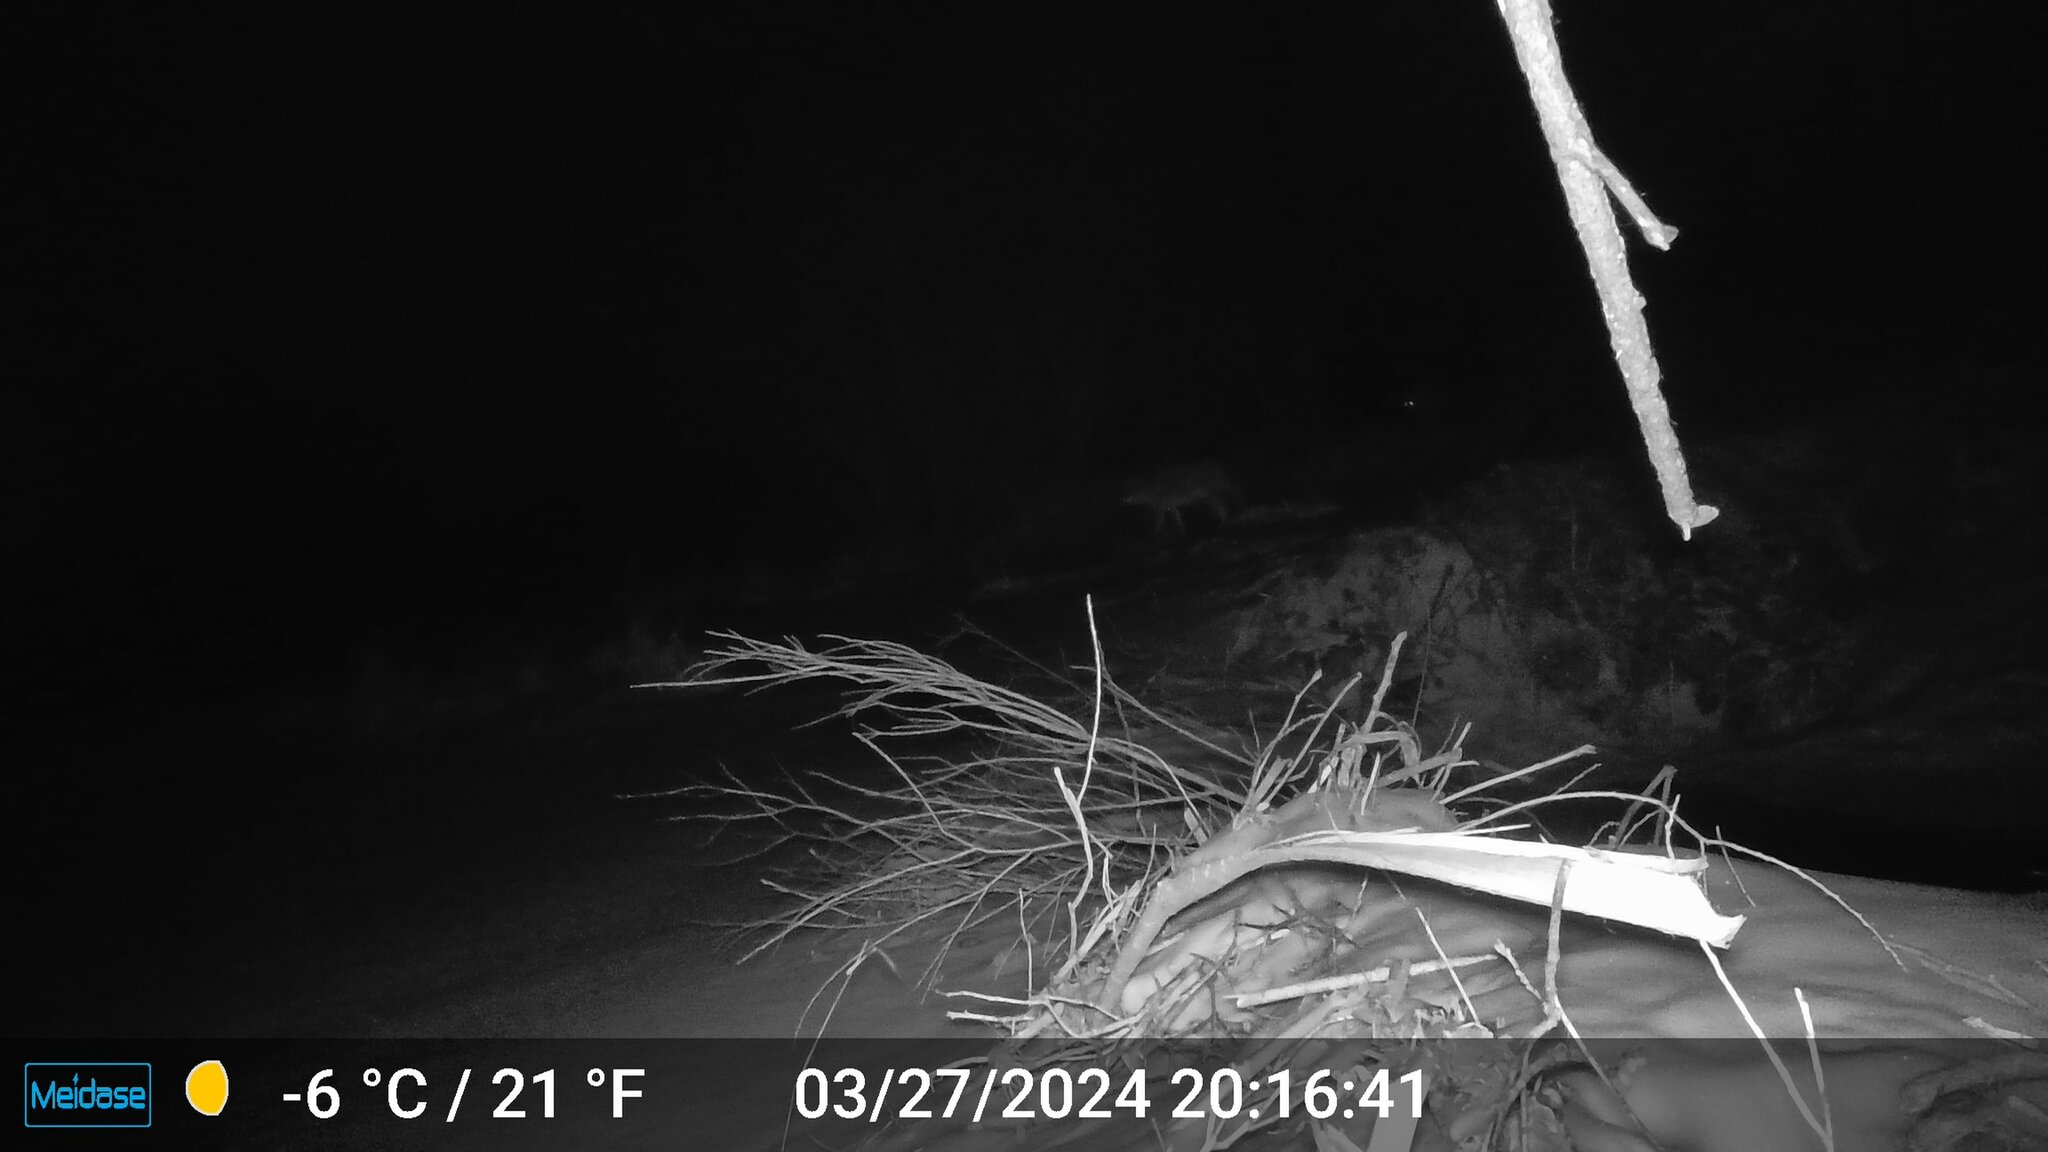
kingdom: Animalia
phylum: Chordata
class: Mammalia
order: Carnivora
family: Canidae
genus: Canis
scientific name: Canis latrans
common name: Coyote
